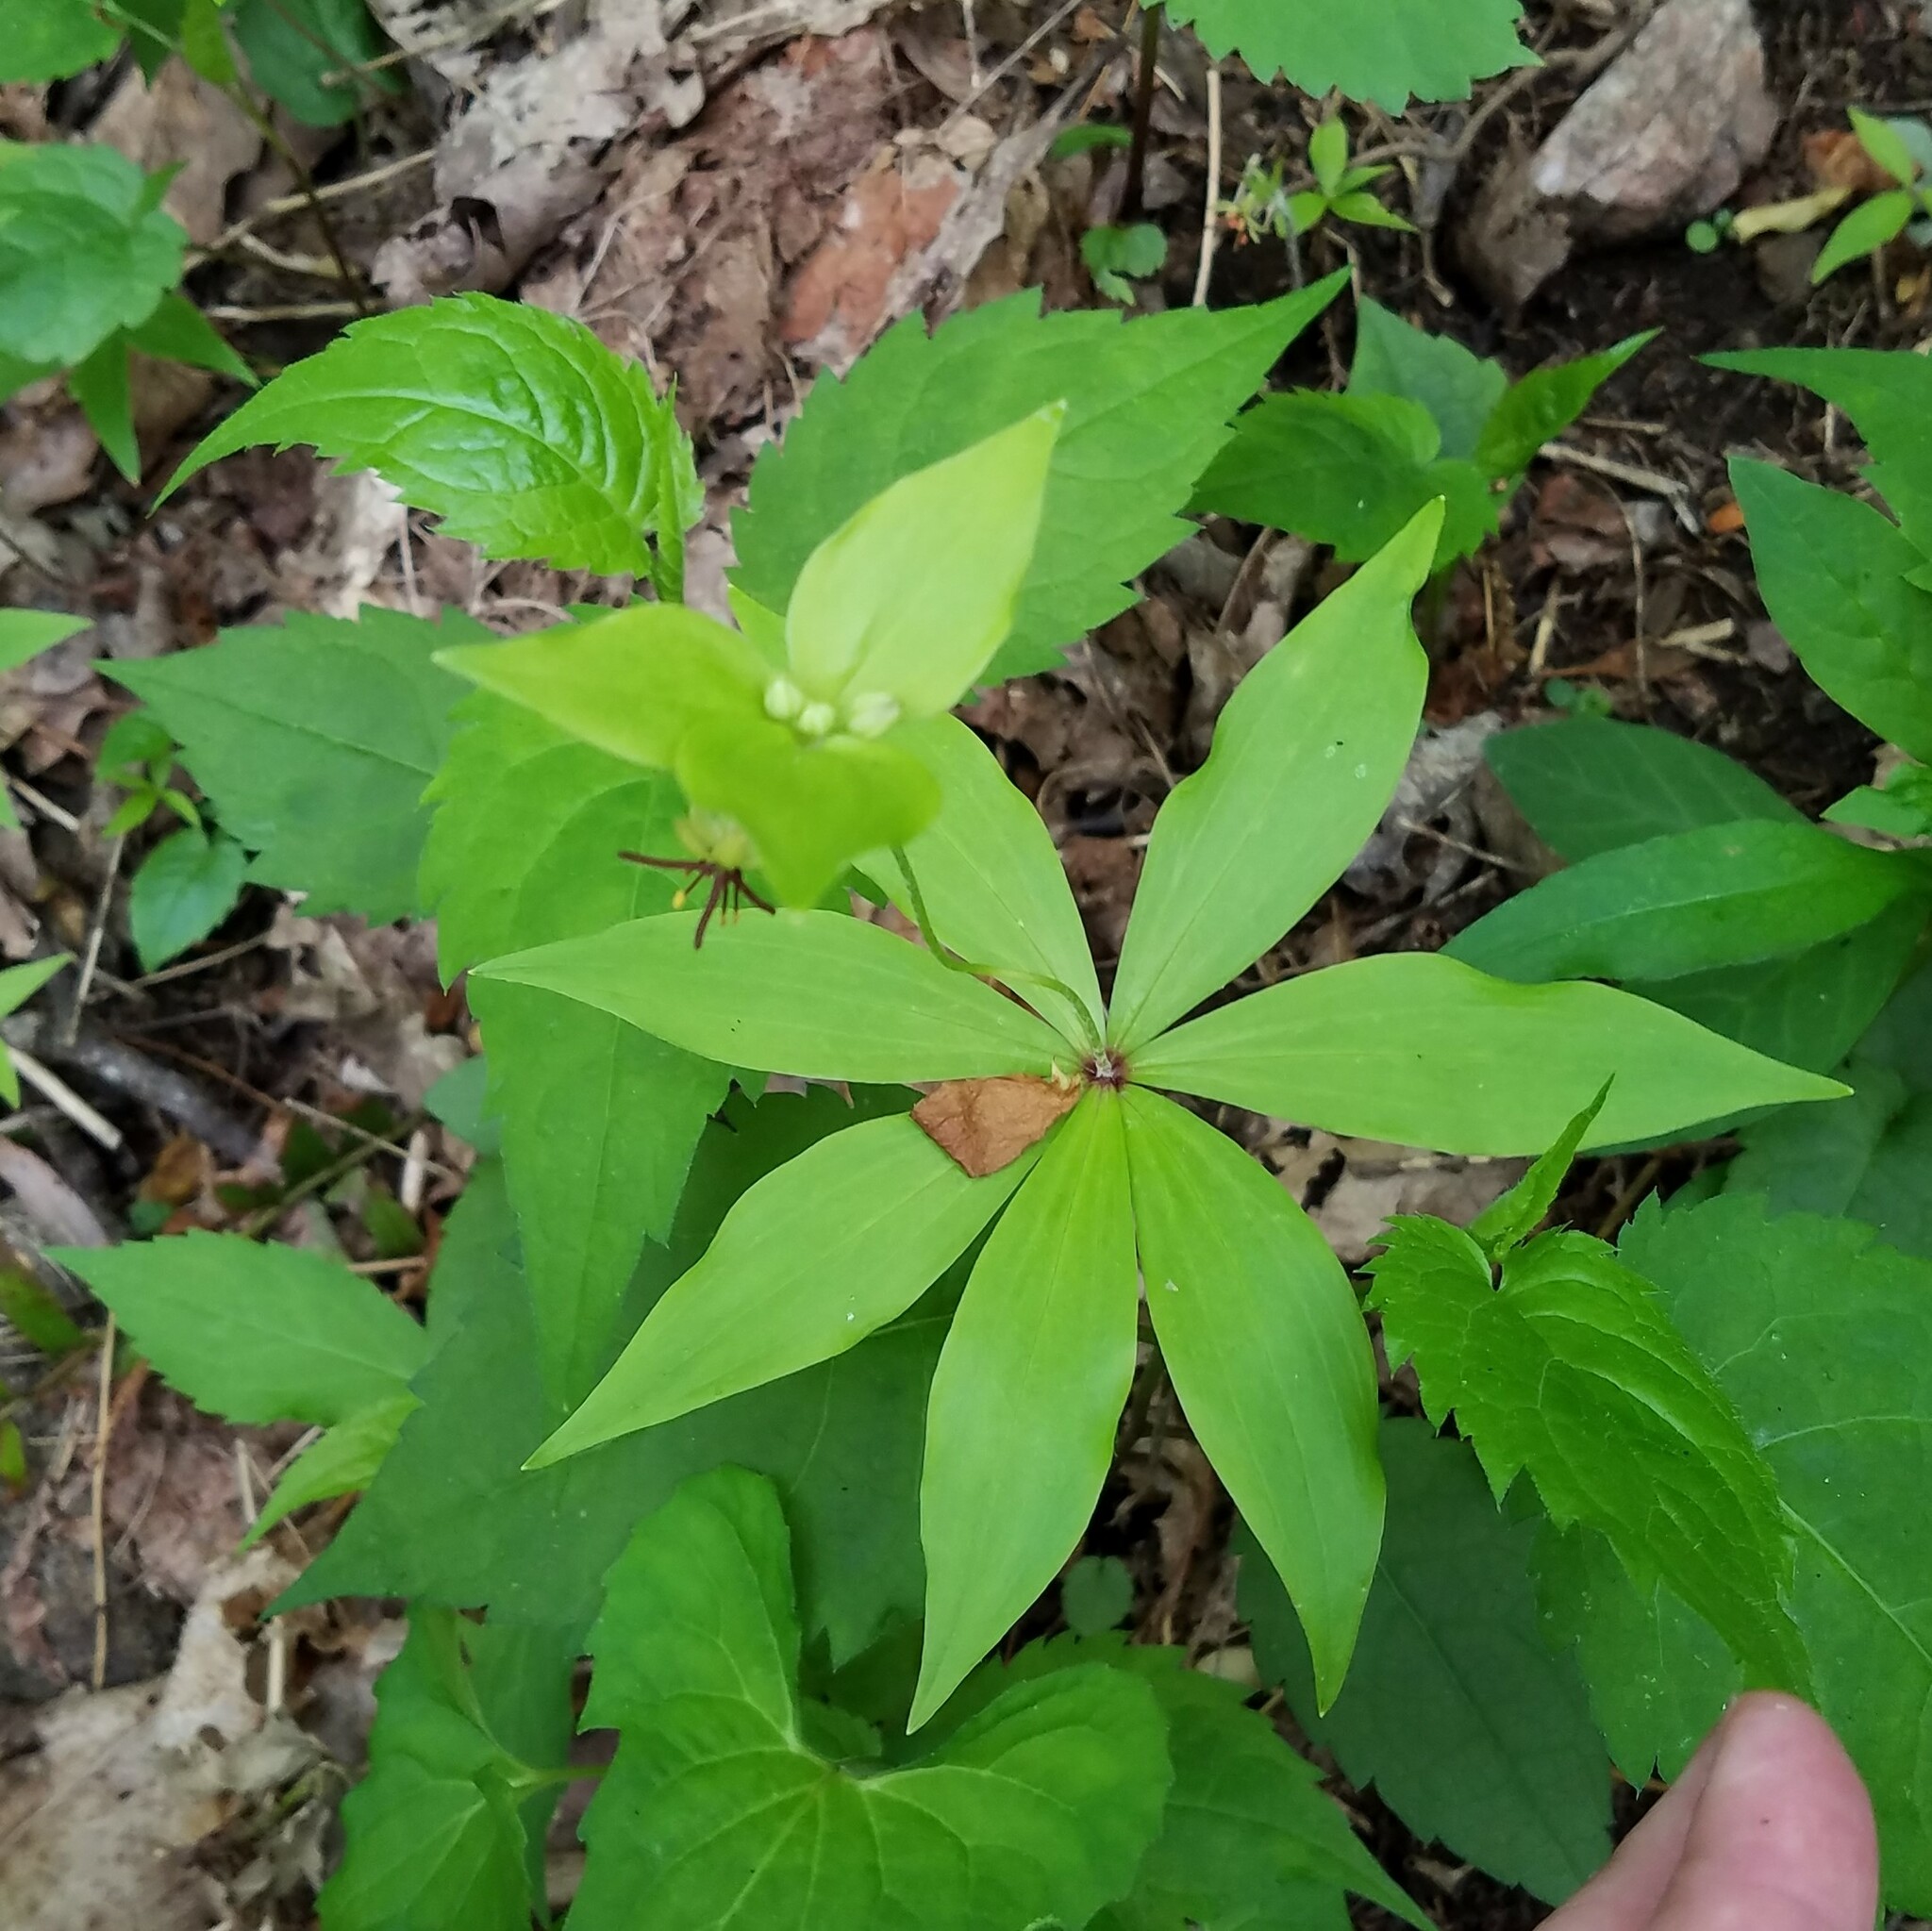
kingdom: Plantae
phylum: Tracheophyta
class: Liliopsida
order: Liliales
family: Liliaceae
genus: Medeola
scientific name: Medeola virginiana
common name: Indian cucumber-root
